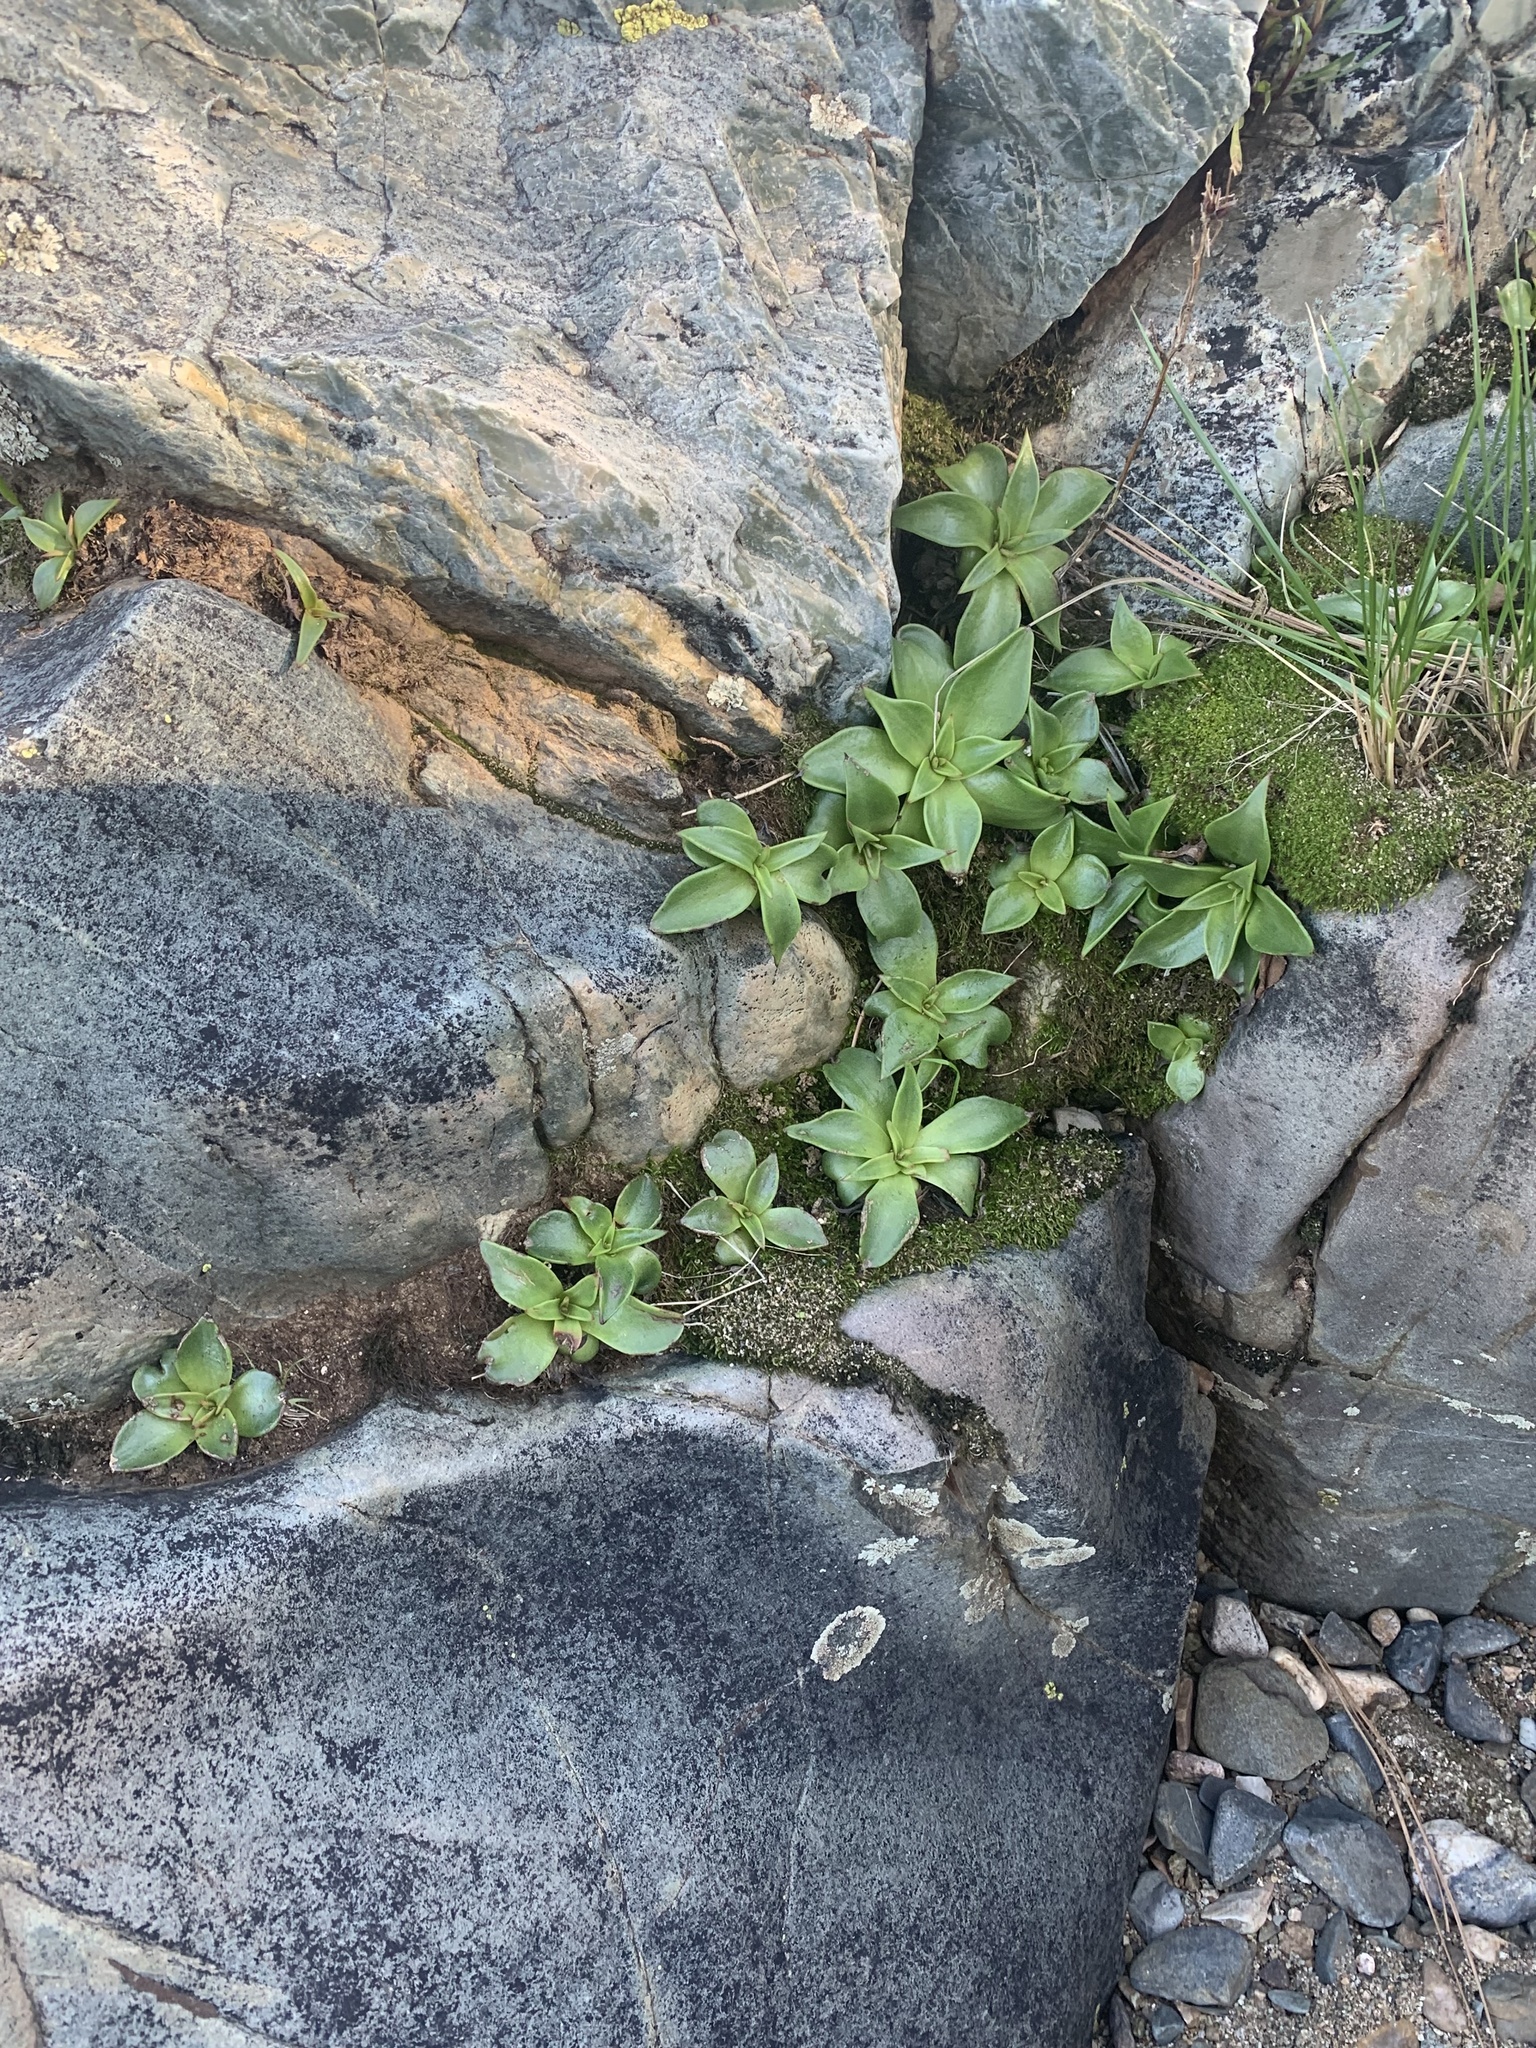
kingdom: Plantae
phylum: Tracheophyta
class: Magnoliopsida
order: Saxifragales
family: Crassulaceae
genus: Dudleya
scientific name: Dudleya cymosa
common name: Canyon dudleya
